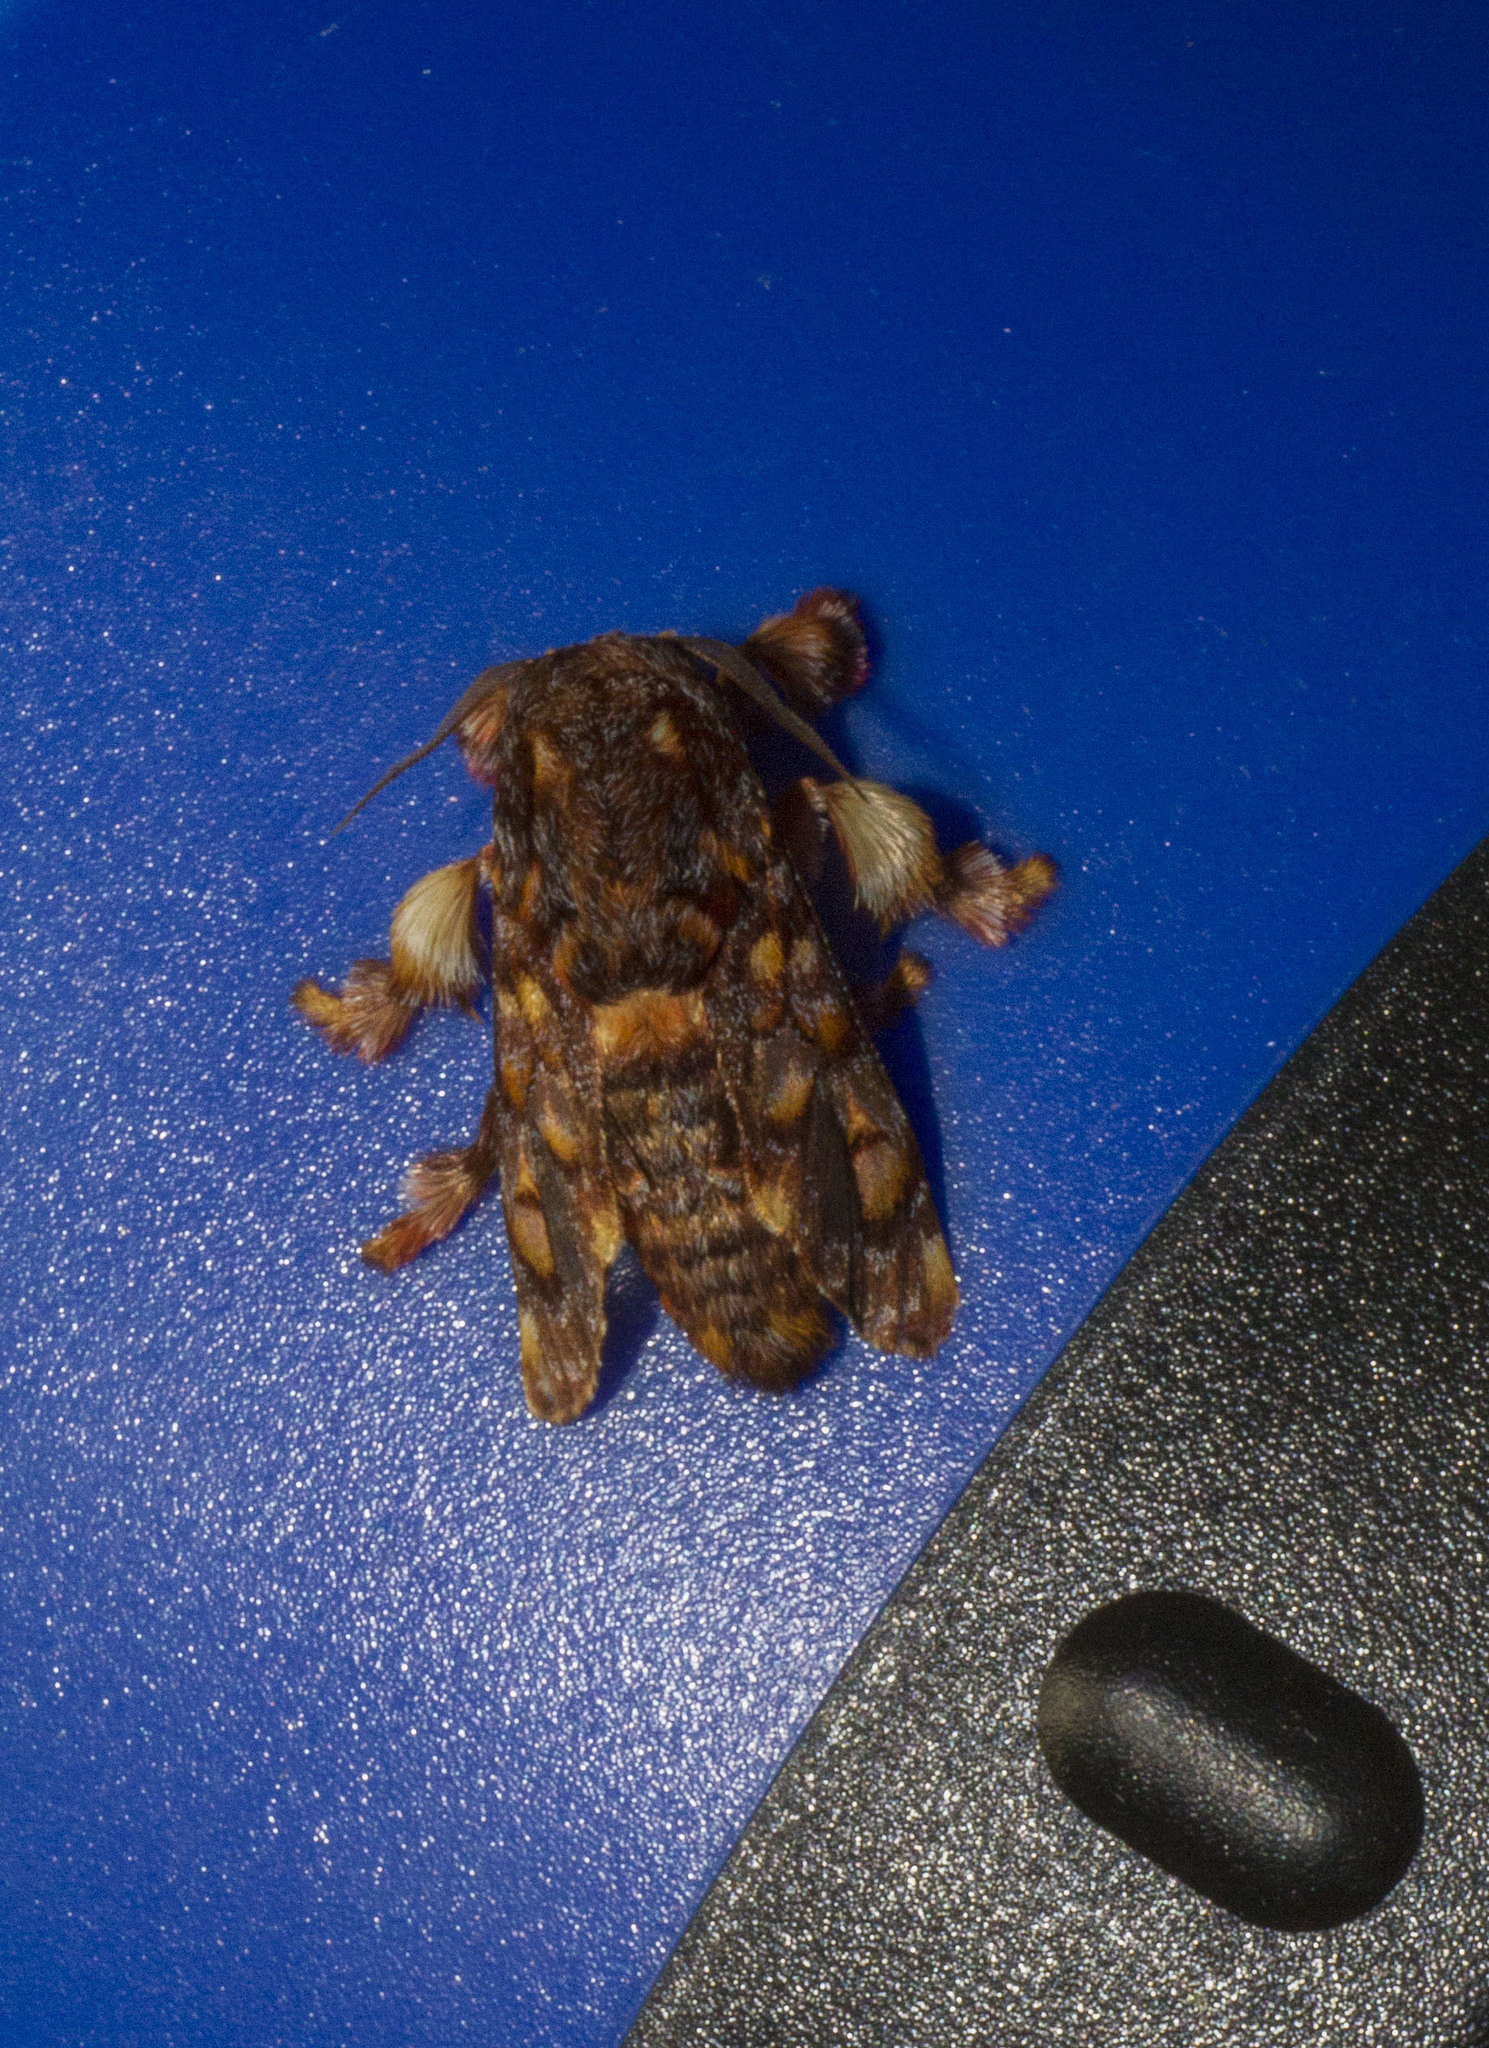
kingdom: Animalia
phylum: Arthropoda
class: Insecta
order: Lepidoptera
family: Limacodidae
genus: Phobetron
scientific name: Phobetron hipparchia
